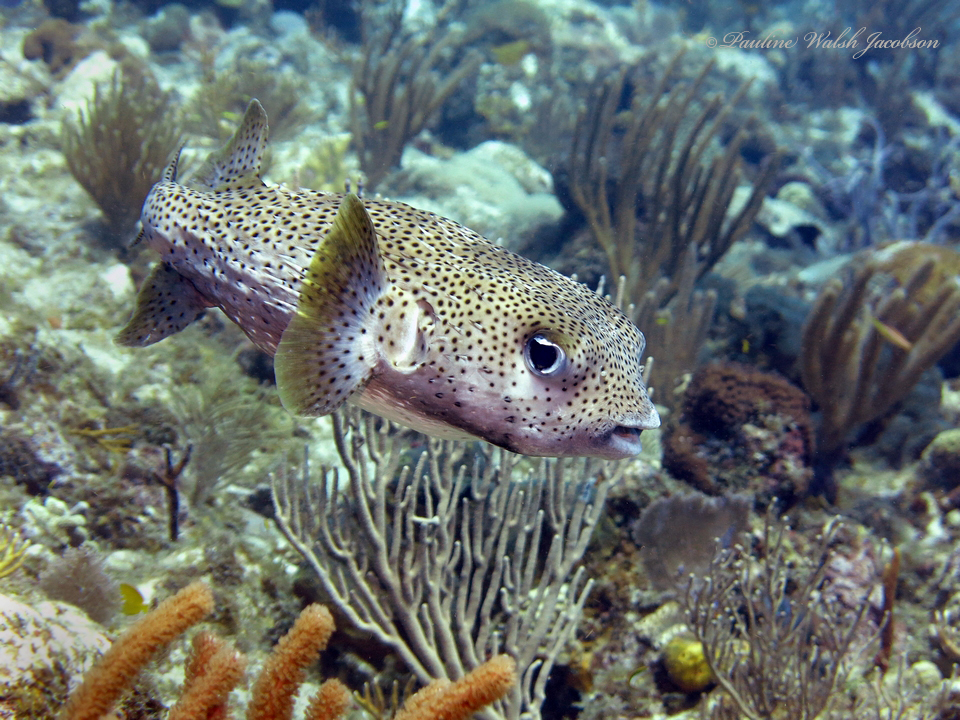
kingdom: Animalia
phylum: Chordata
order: Tetraodontiformes
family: Diodontidae
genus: Diodon
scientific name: Diodon hystrix
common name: Giant porcupinefish
